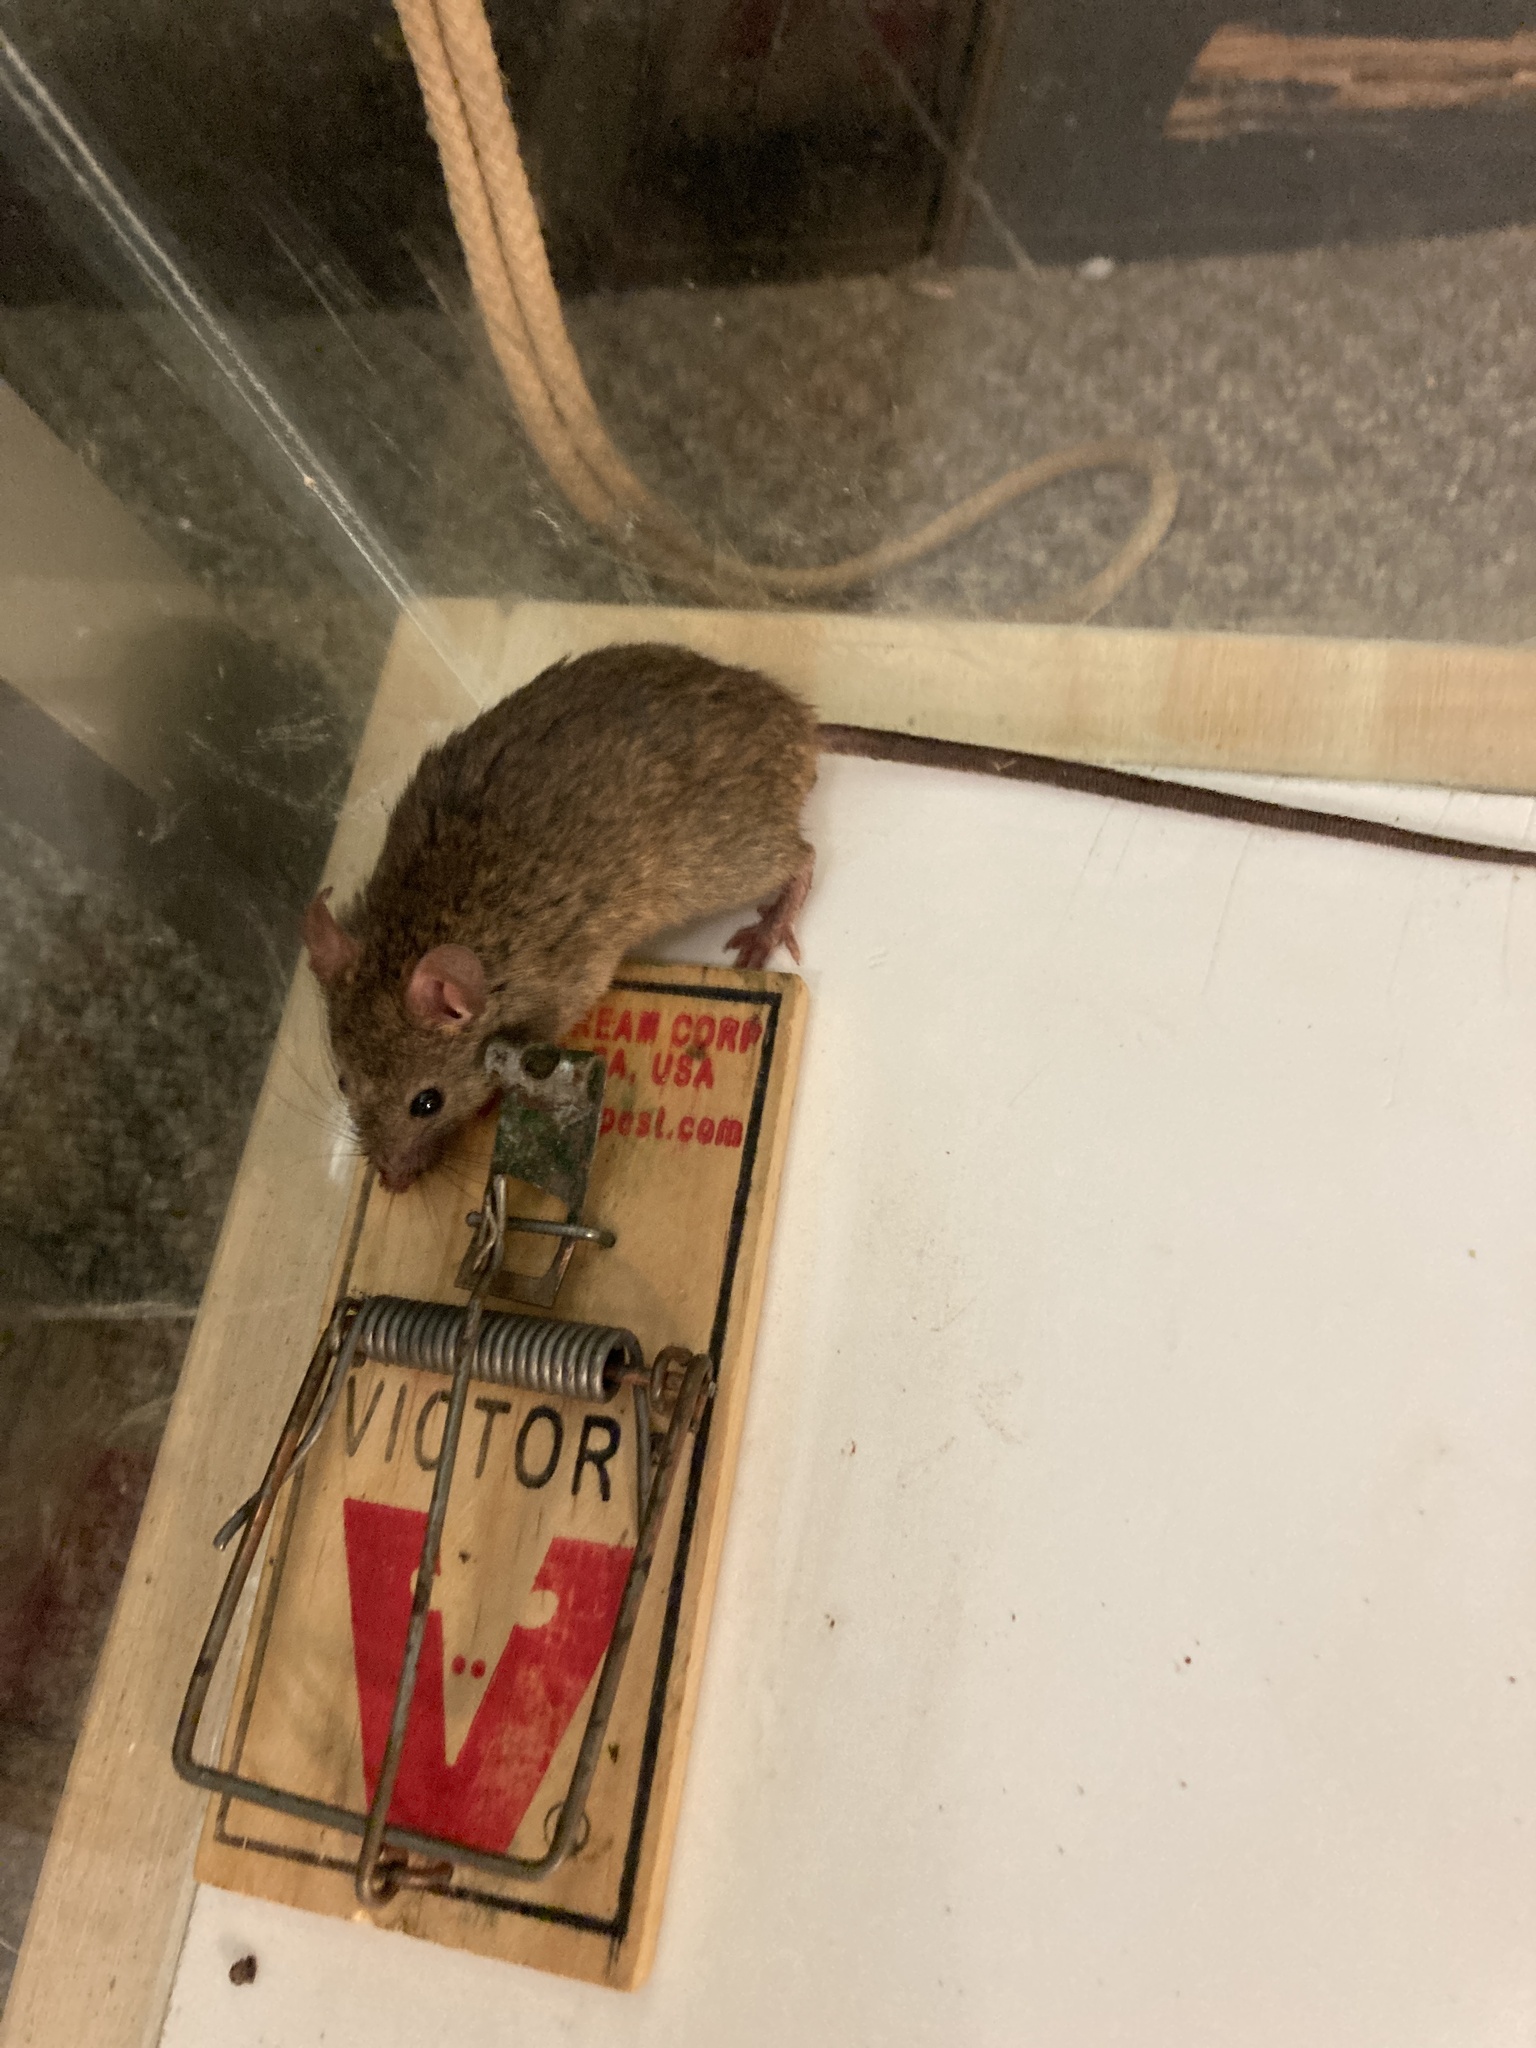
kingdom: Animalia
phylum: Chordata
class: Mammalia
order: Rodentia
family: Muridae
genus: Mus
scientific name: Mus musculus
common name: House mouse
